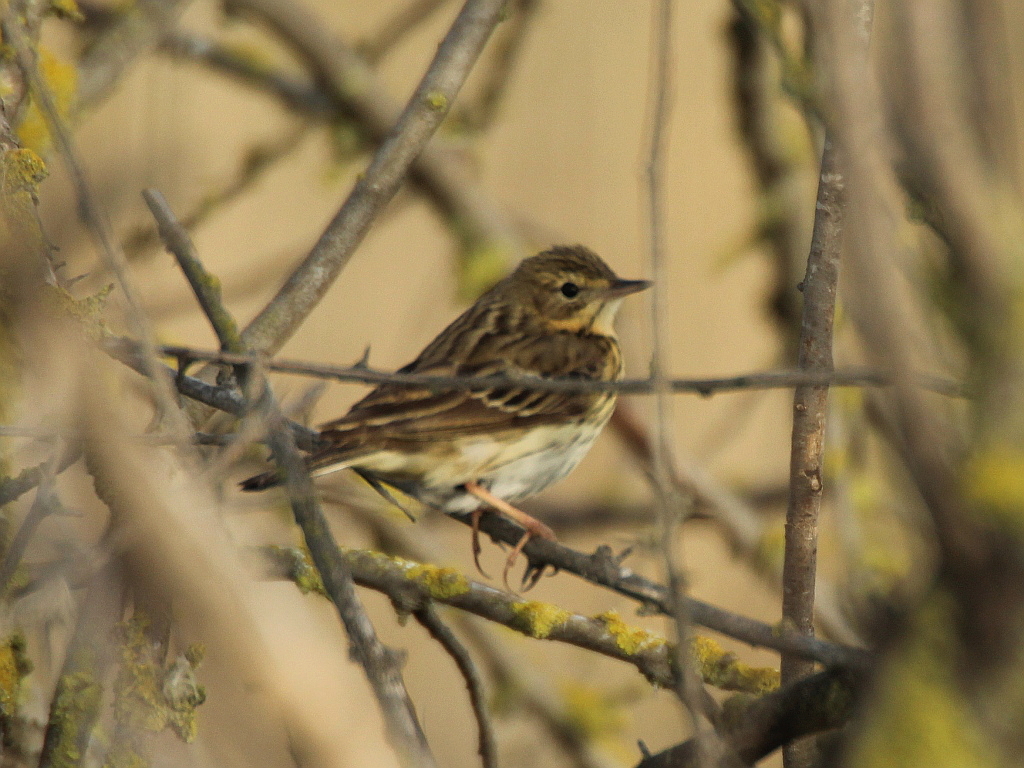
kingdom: Animalia
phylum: Chordata
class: Aves
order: Passeriformes
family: Motacillidae
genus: Anthus
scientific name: Anthus trivialis
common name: Tree pipit
